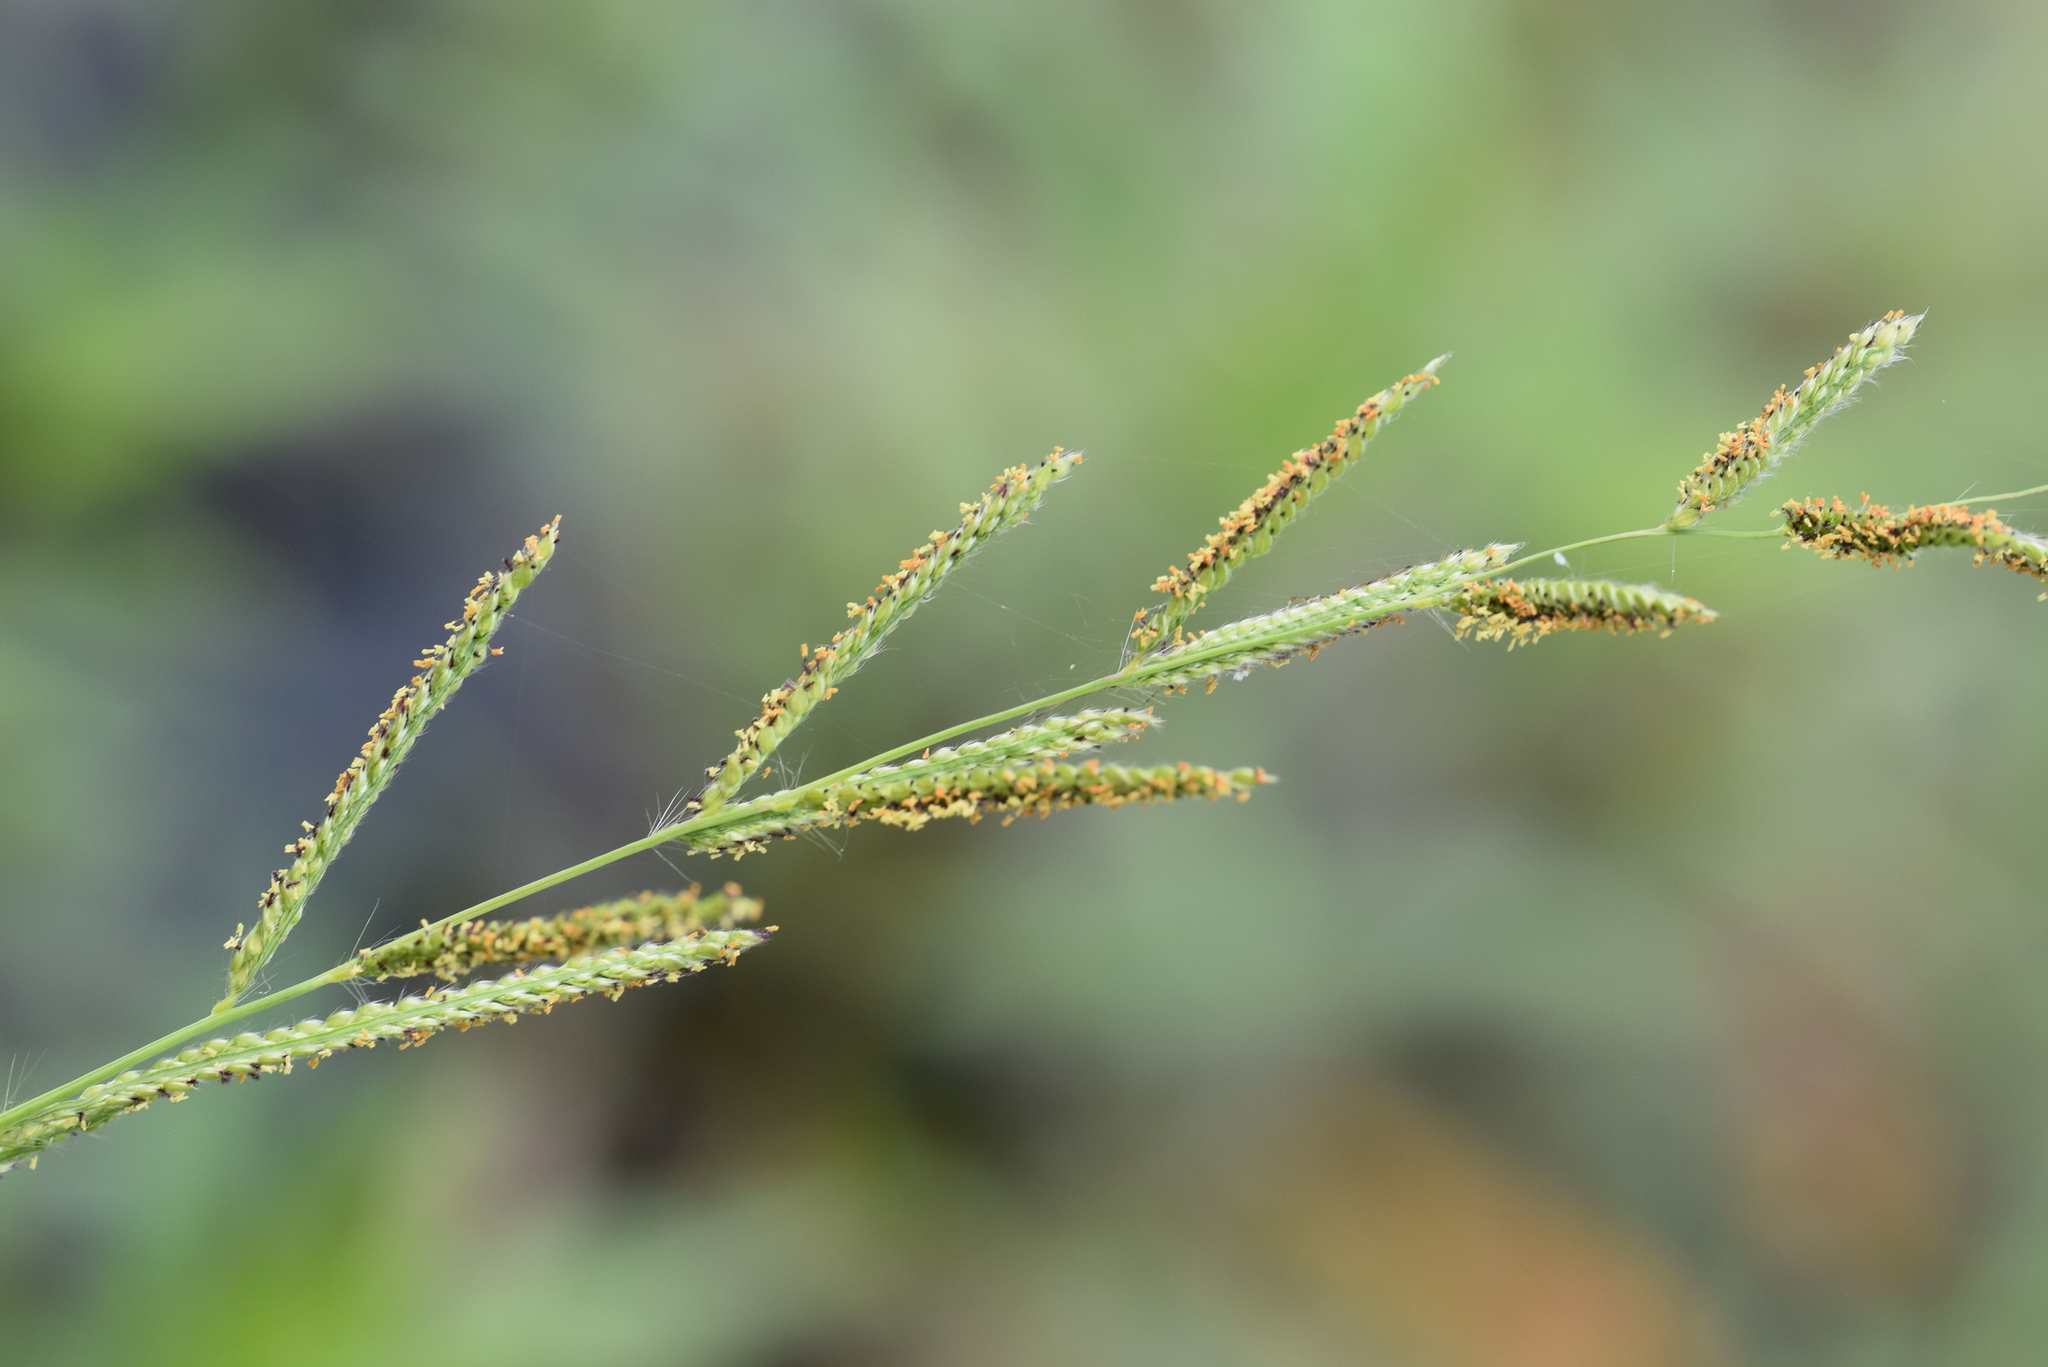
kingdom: Plantae
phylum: Tracheophyta
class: Liliopsida
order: Poales
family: Poaceae
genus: Paspalum
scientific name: Paspalum urvillei
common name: Vasey's grass
